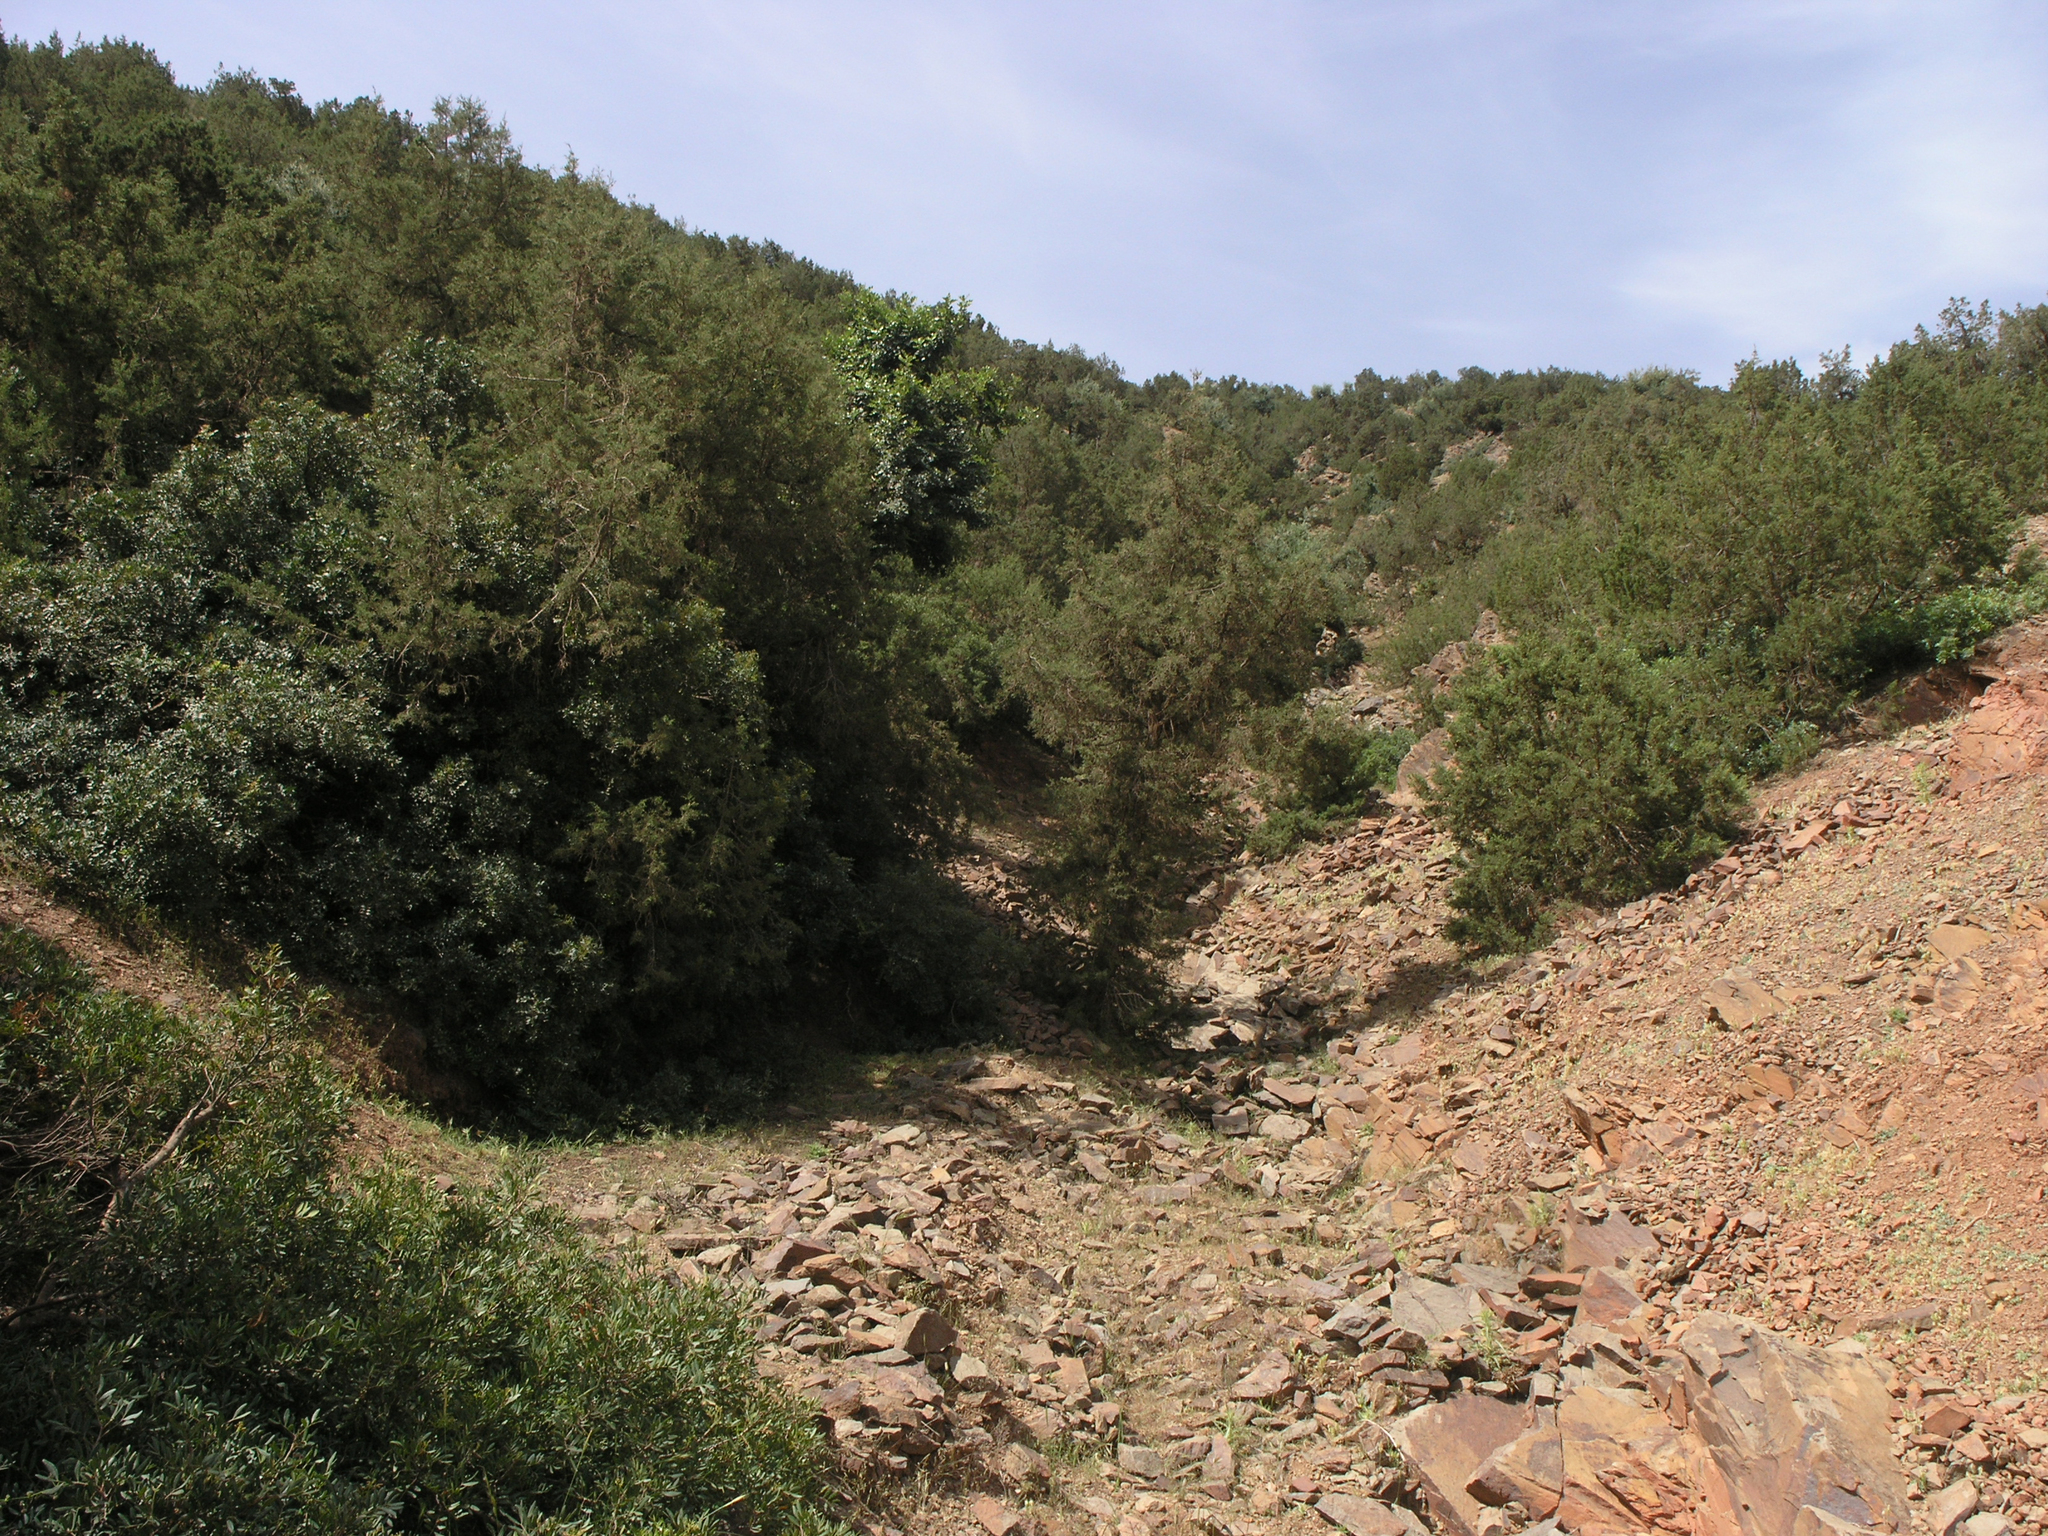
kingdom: Plantae
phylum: Tracheophyta
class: Pinopsida
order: Pinales
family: Cupressaceae
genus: Juniperus
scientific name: Juniperus phoenicea
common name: Phoenician juniper
